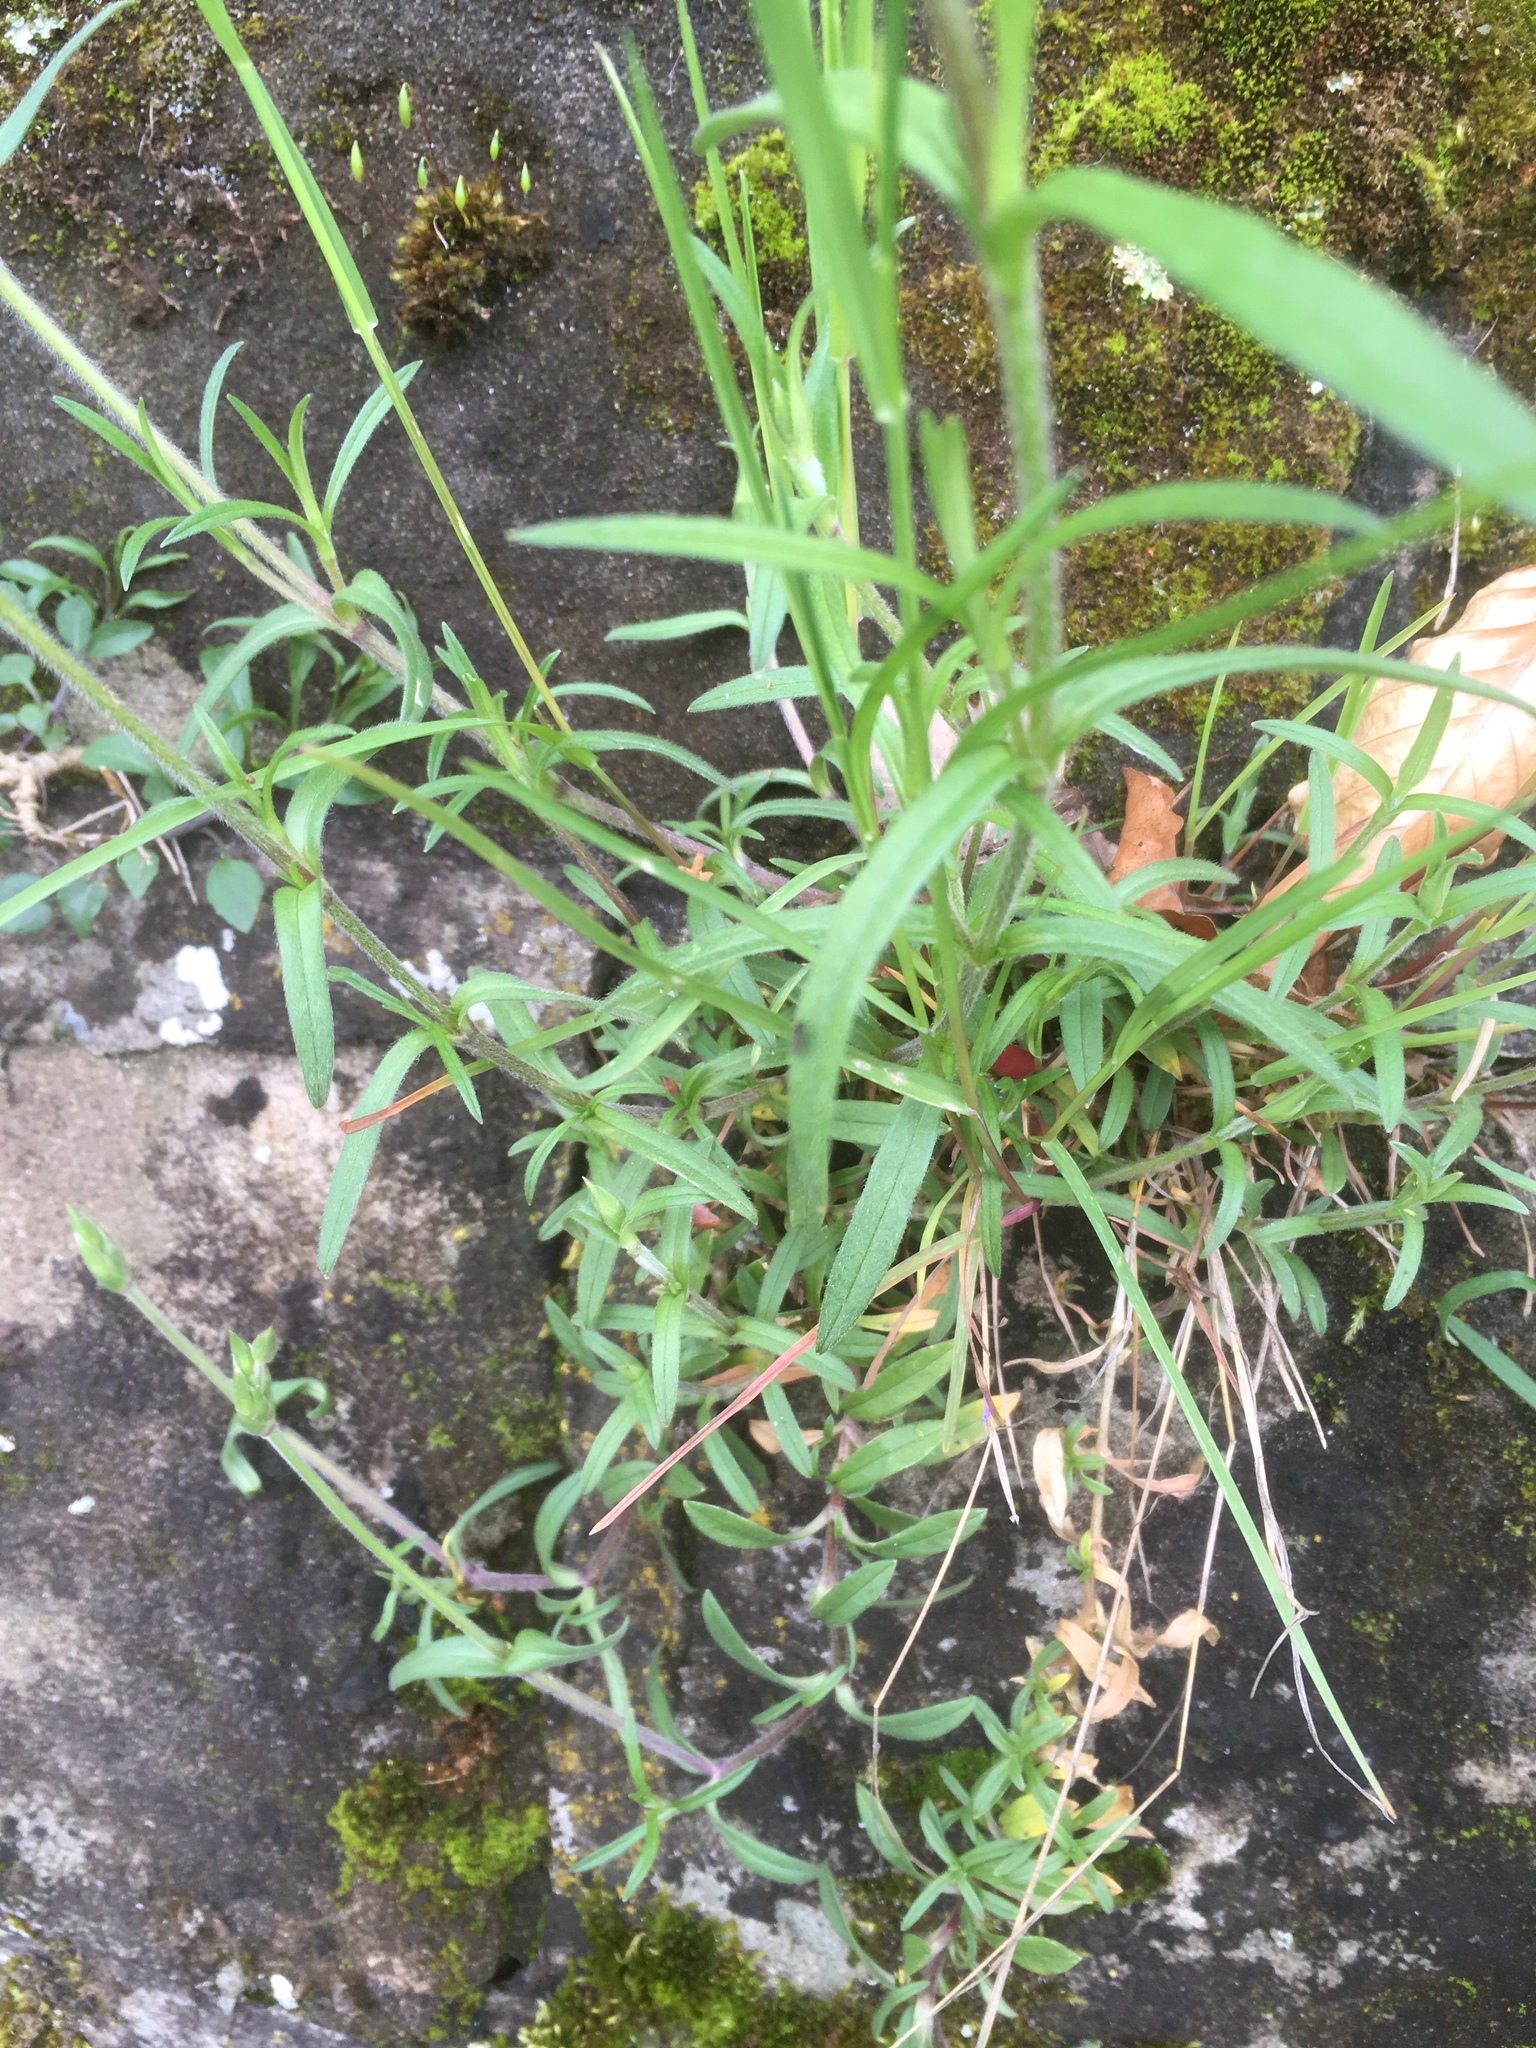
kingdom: Plantae
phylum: Tracheophyta
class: Magnoliopsida
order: Caryophyllales
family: Caryophyllaceae
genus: Cerastium
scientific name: Cerastium arvense
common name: Field mouse-ear
